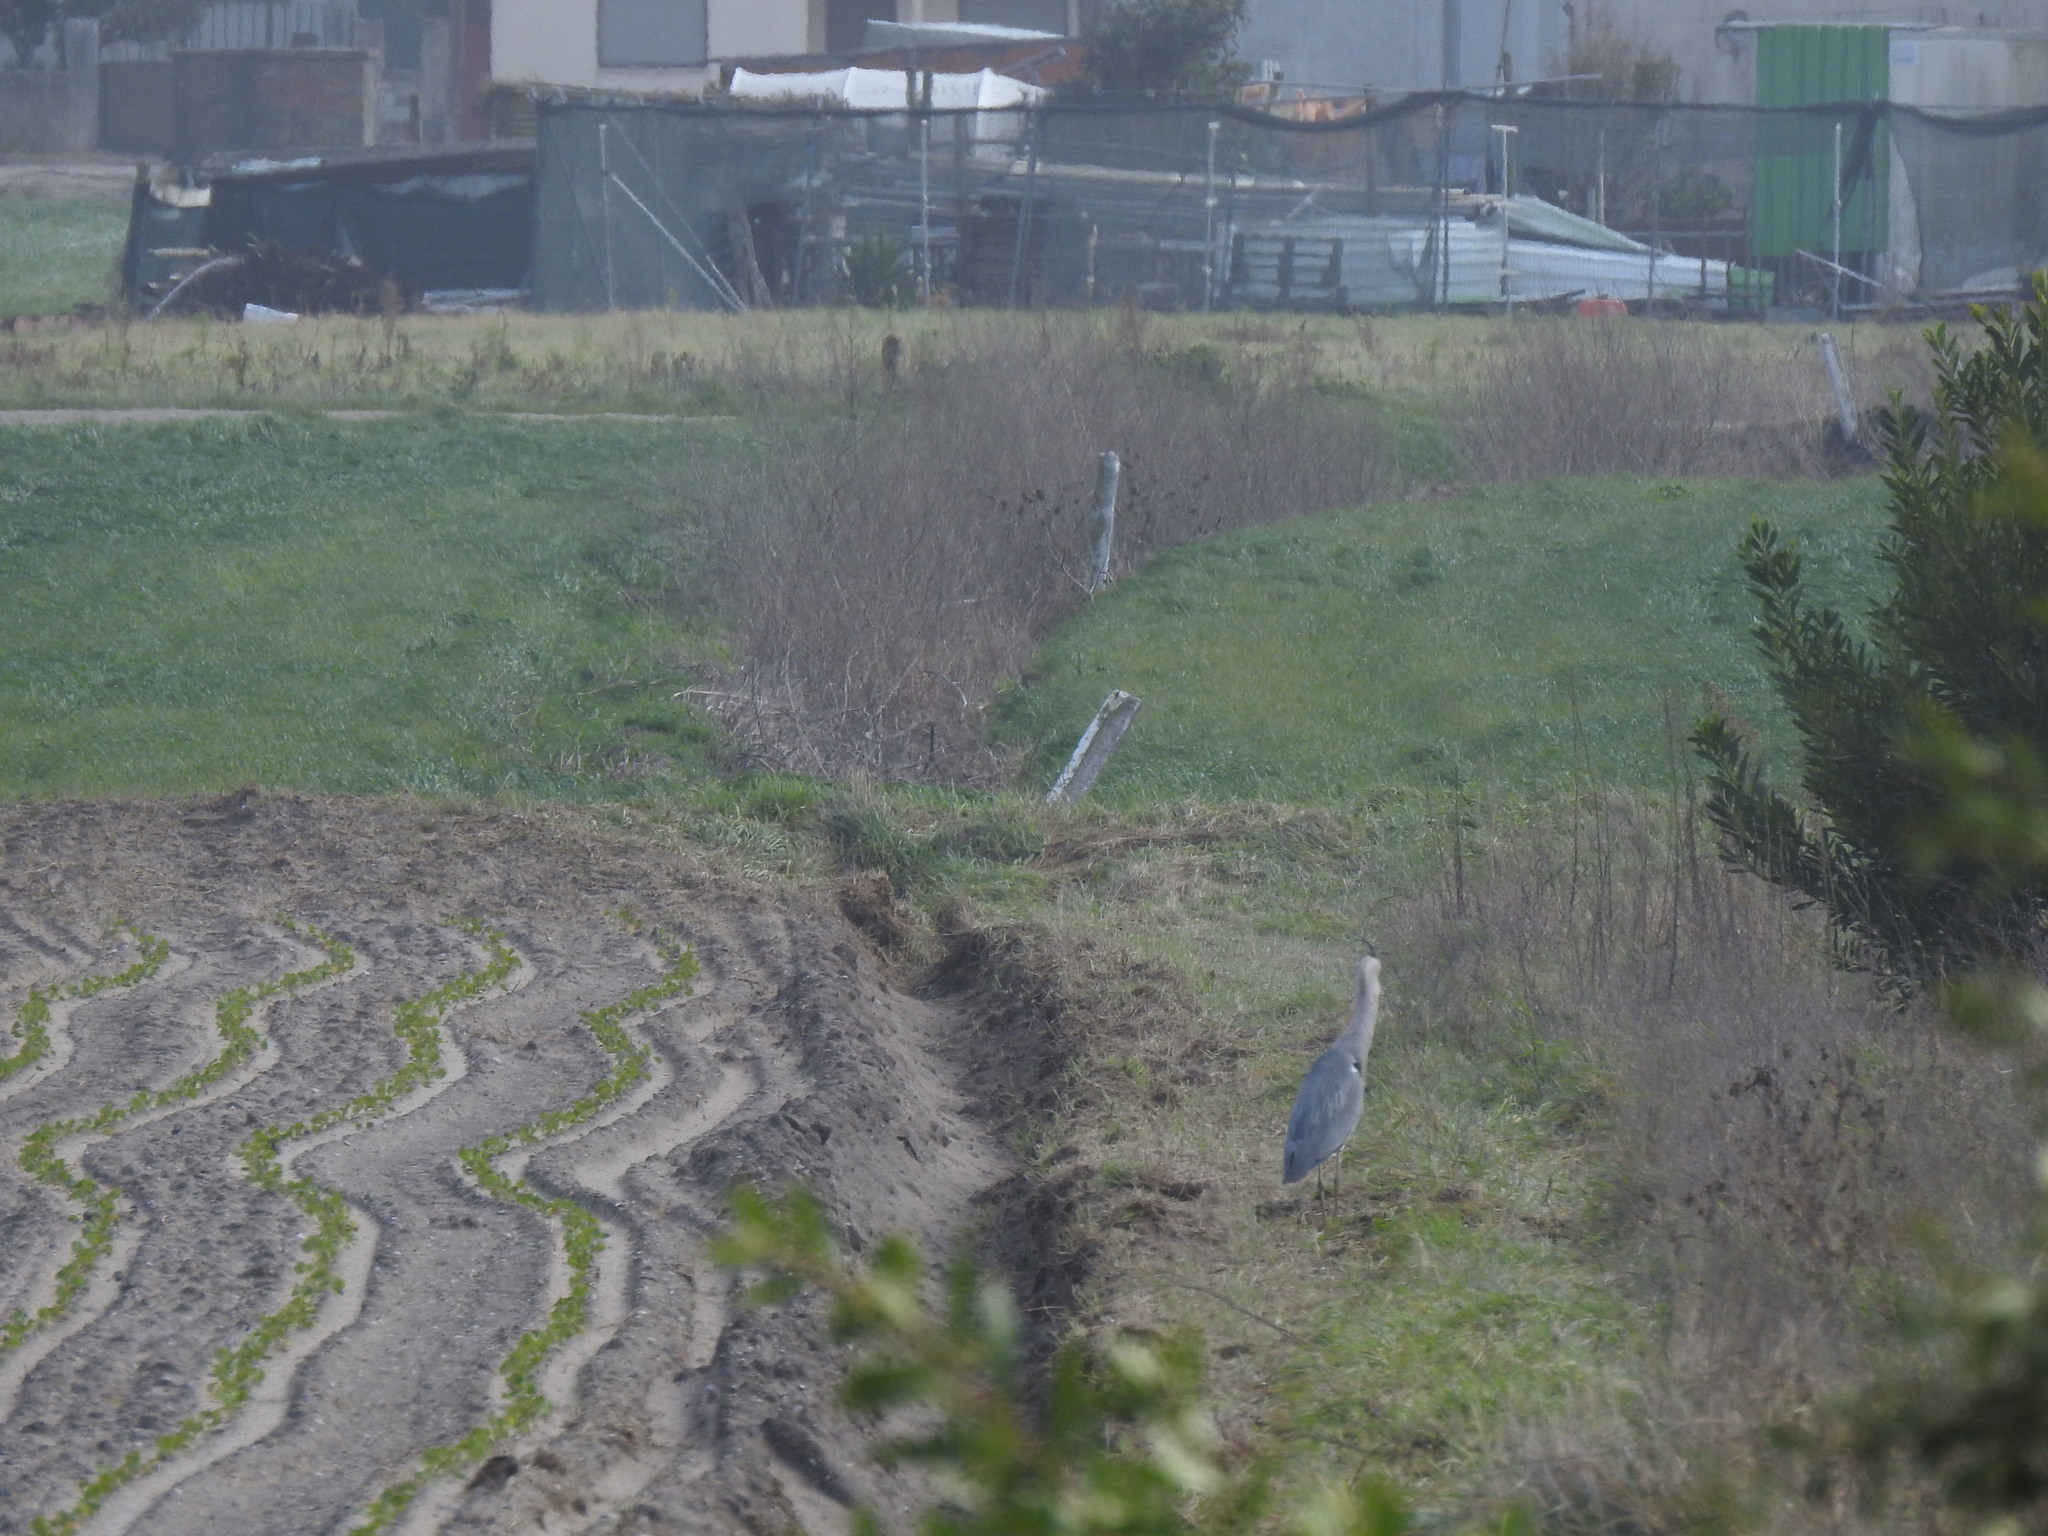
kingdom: Animalia
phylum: Chordata
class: Aves
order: Pelecaniformes
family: Ardeidae
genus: Ardea
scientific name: Ardea cinerea
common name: Grey heron
